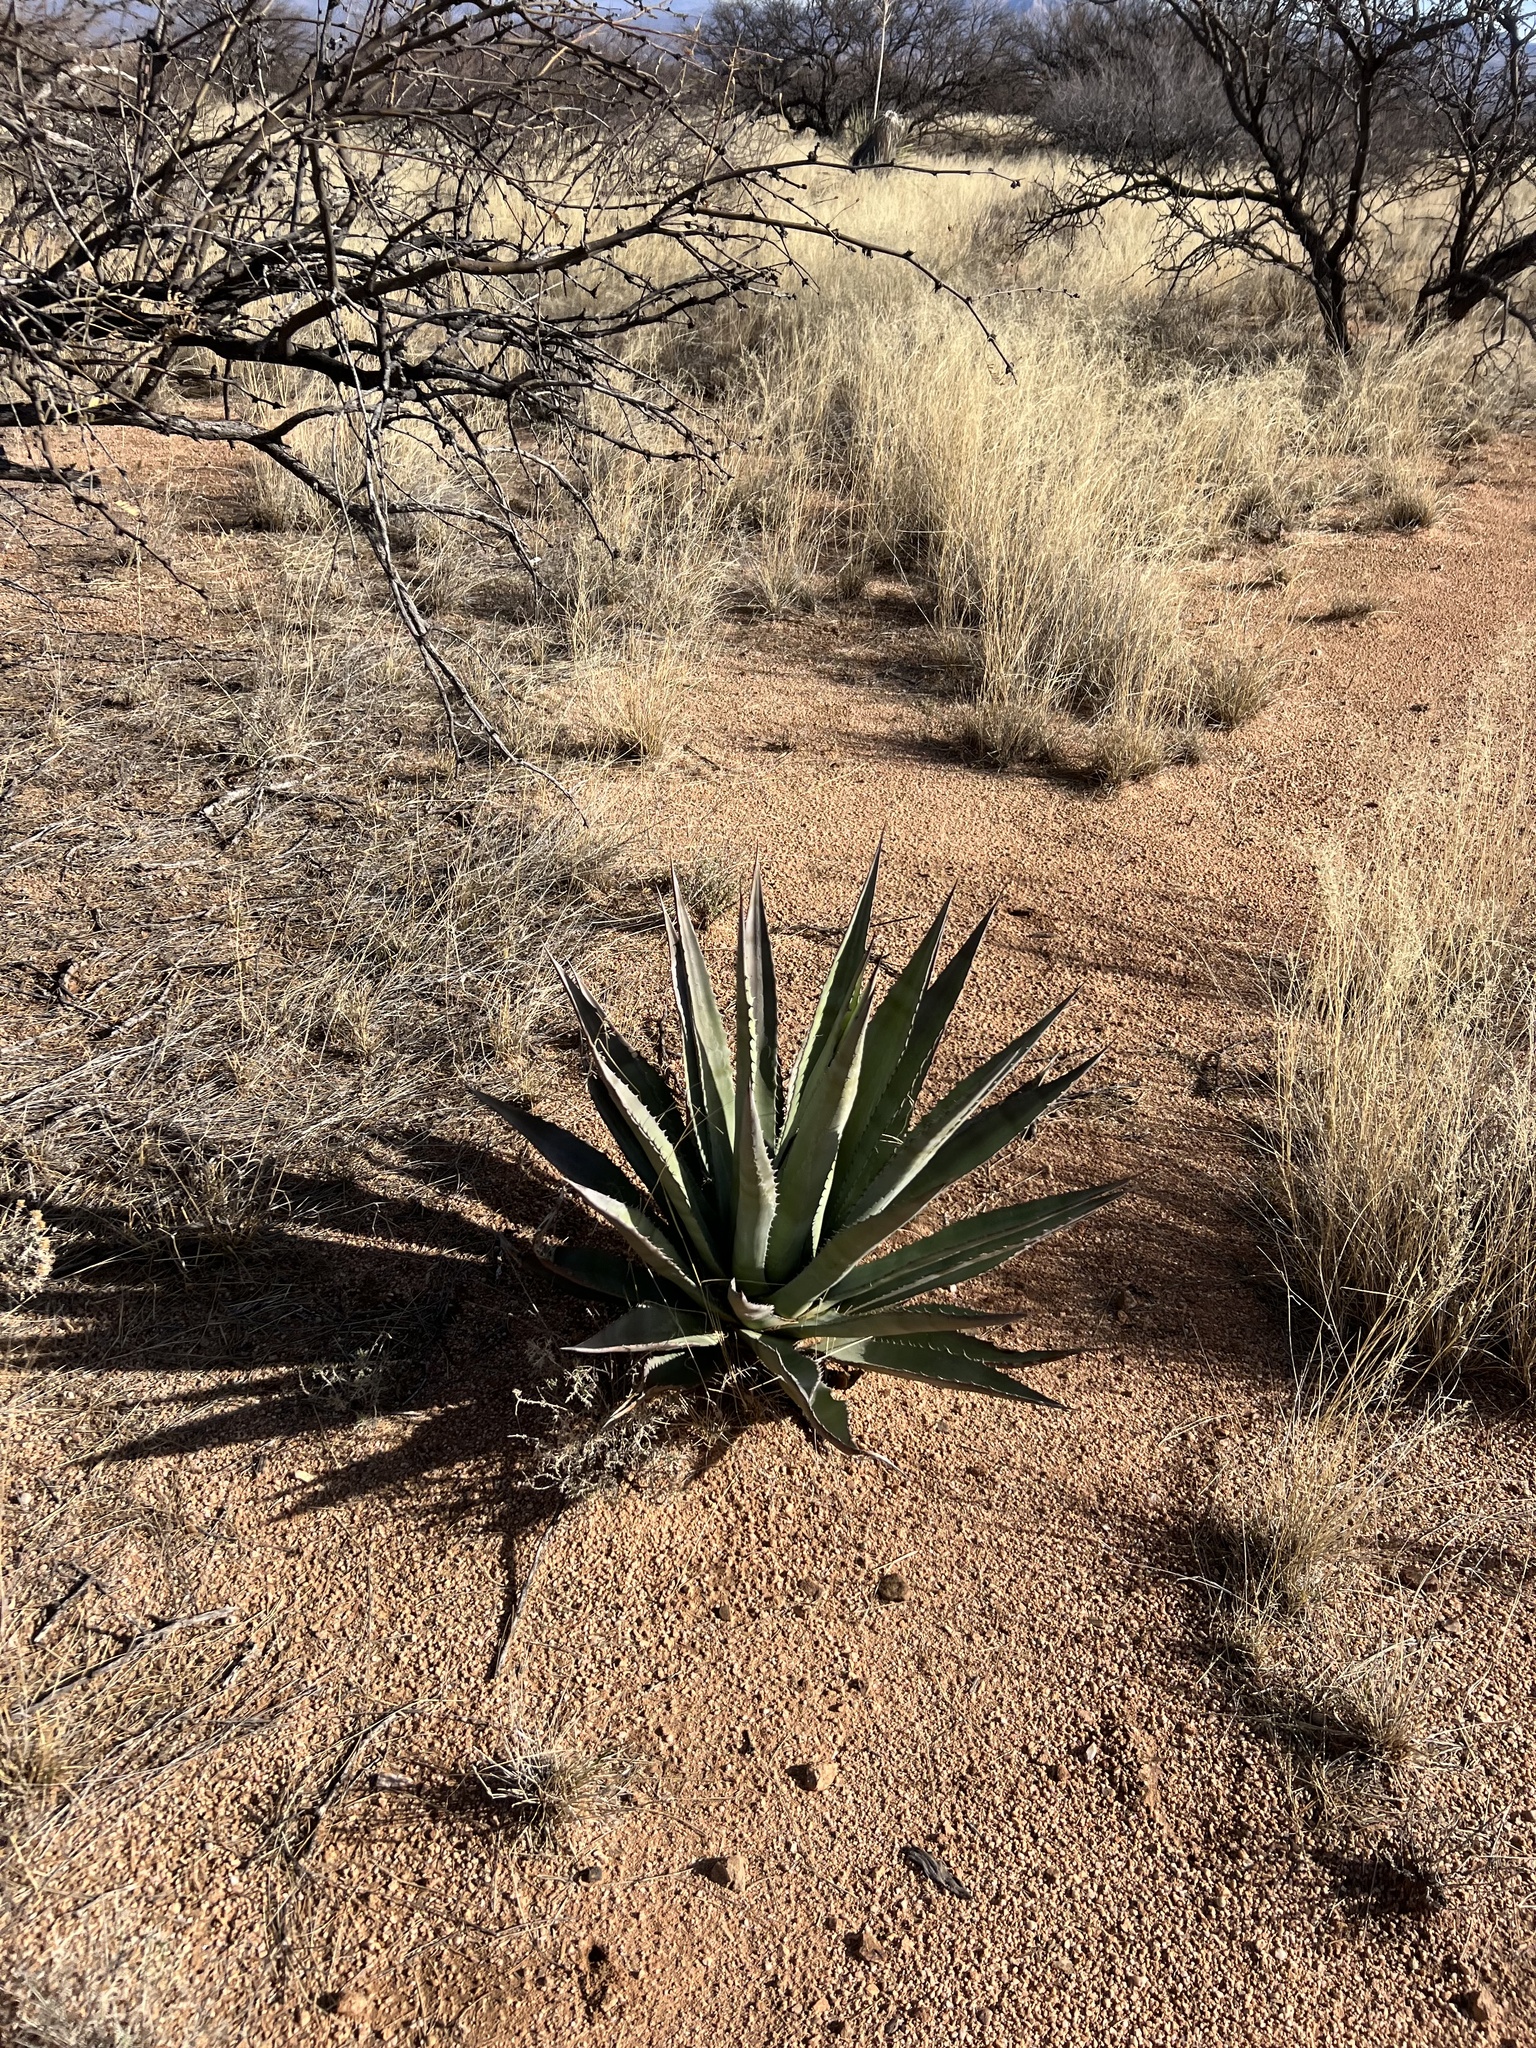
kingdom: Plantae
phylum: Tracheophyta
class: Liliopsida
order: Asparagales
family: Asparagaceae
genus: Agave
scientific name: Agave palmeri
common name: Palmer agave
